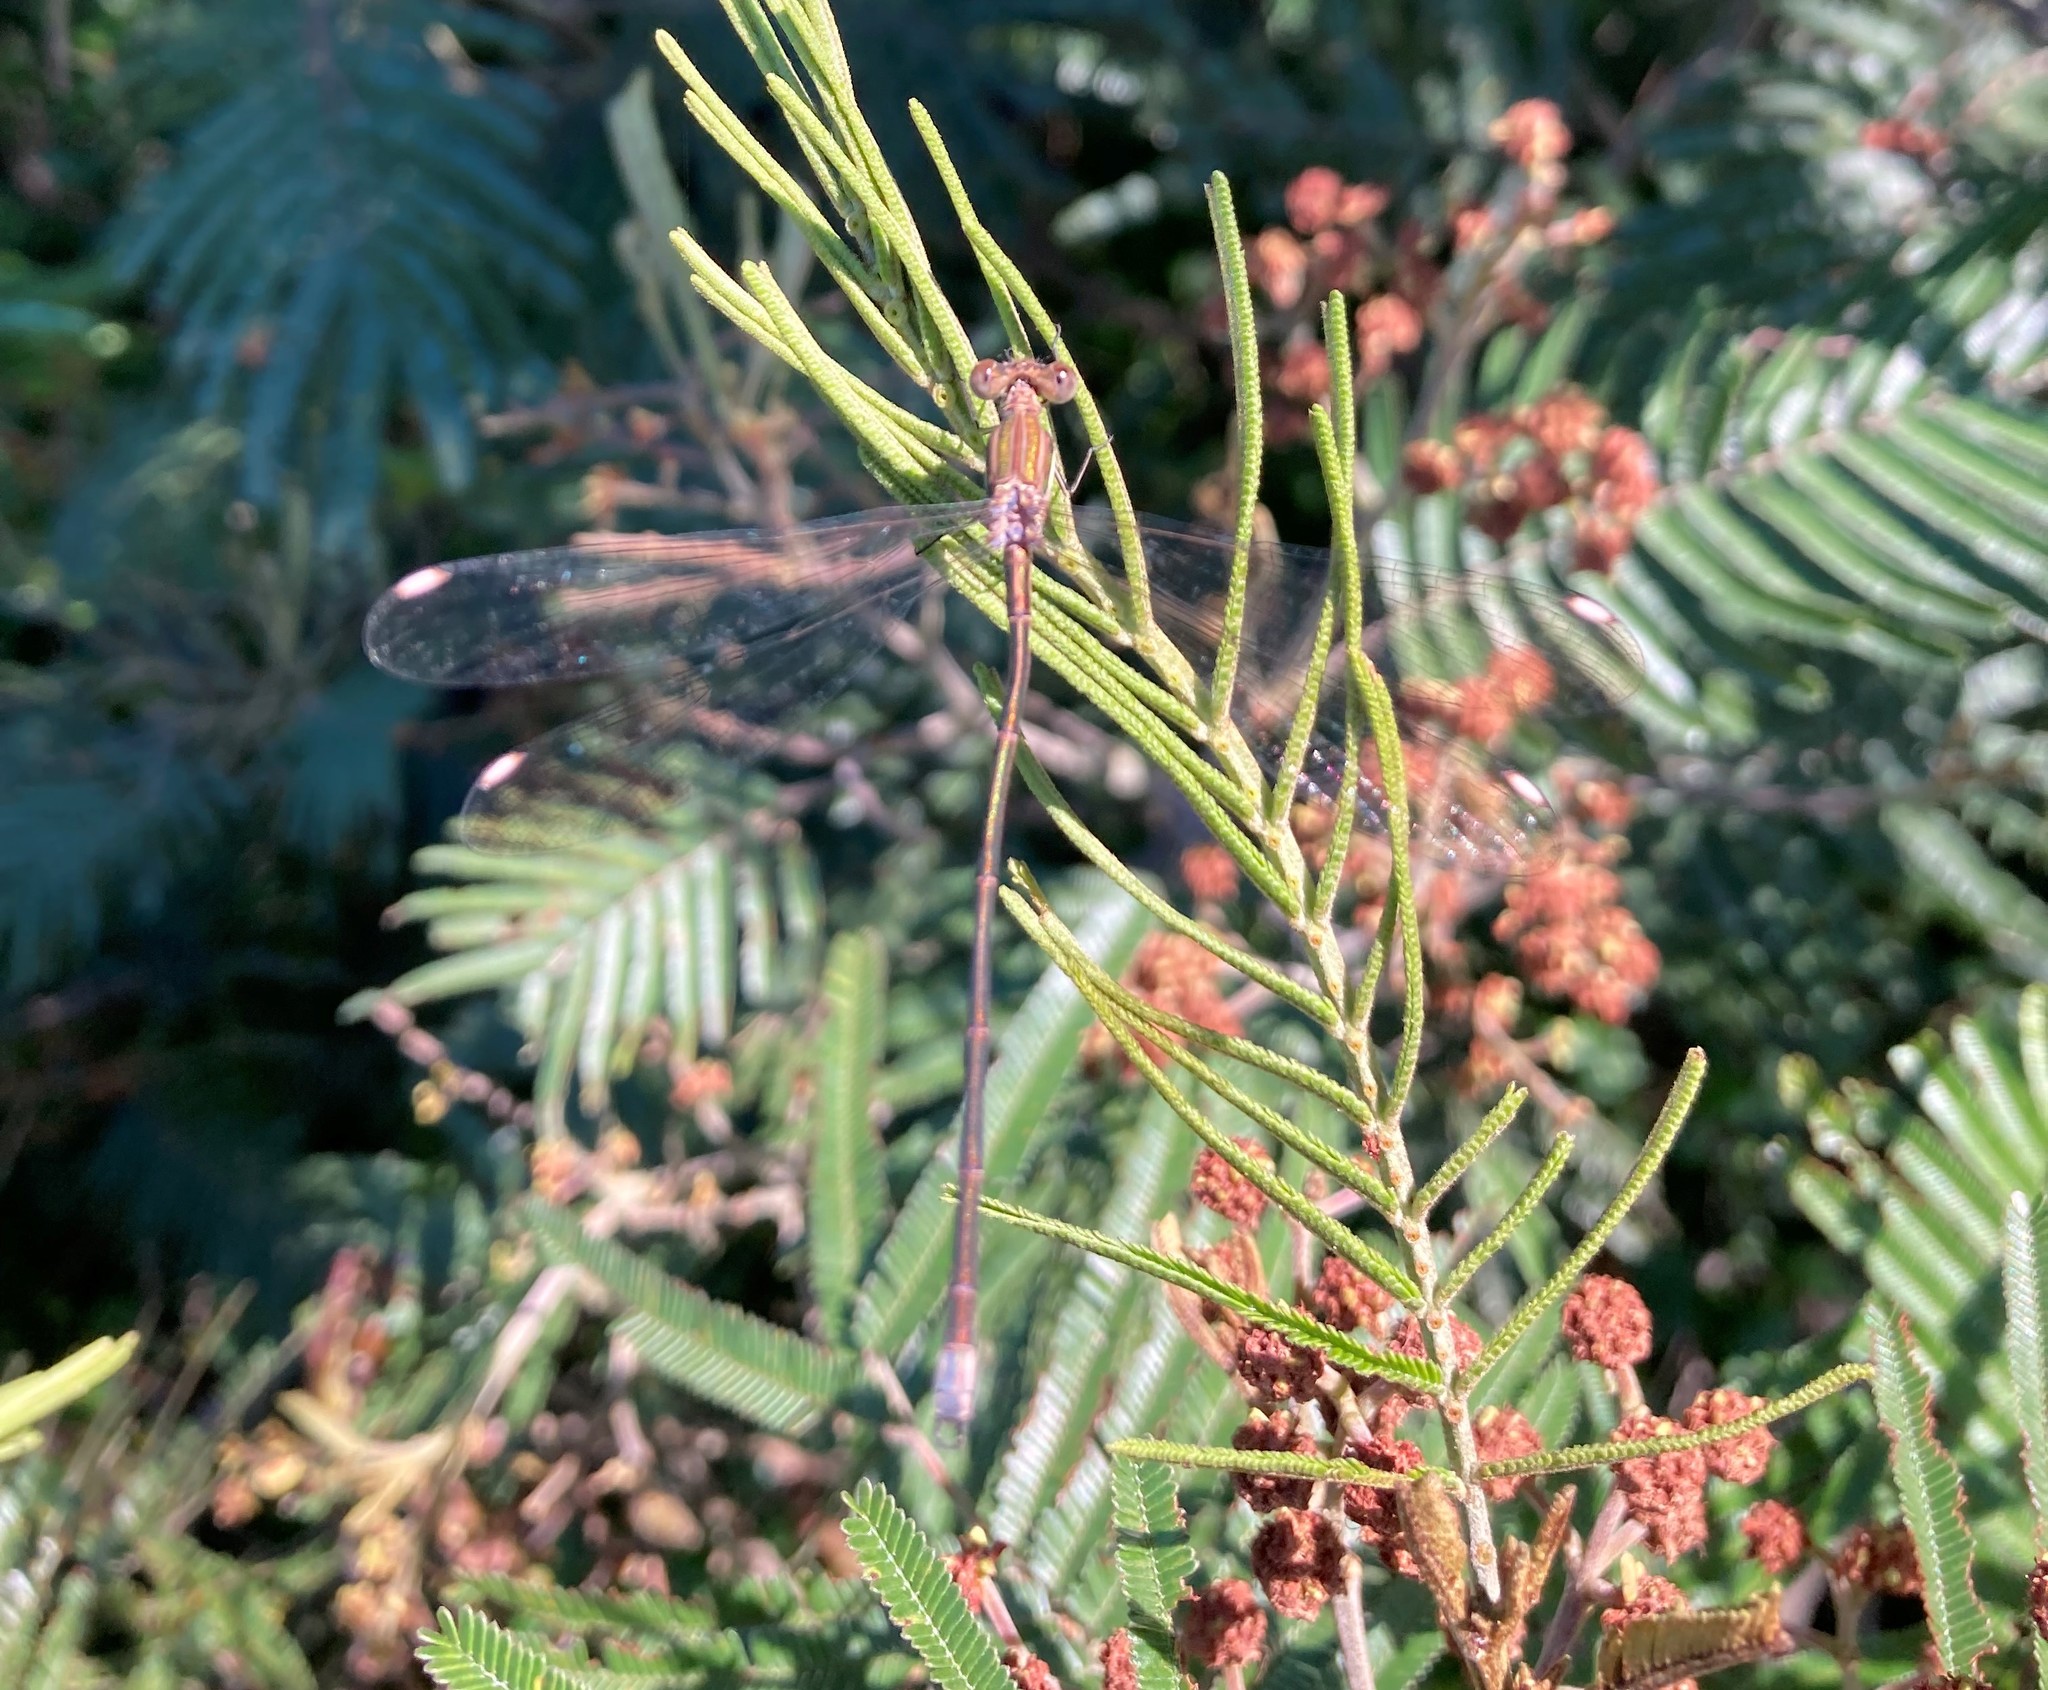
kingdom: Animalia
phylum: Arthropoda
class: Insecta
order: Odonata
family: Lestidae
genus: Lestes
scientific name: Lestes virgatus
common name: Smoky spreadwing
